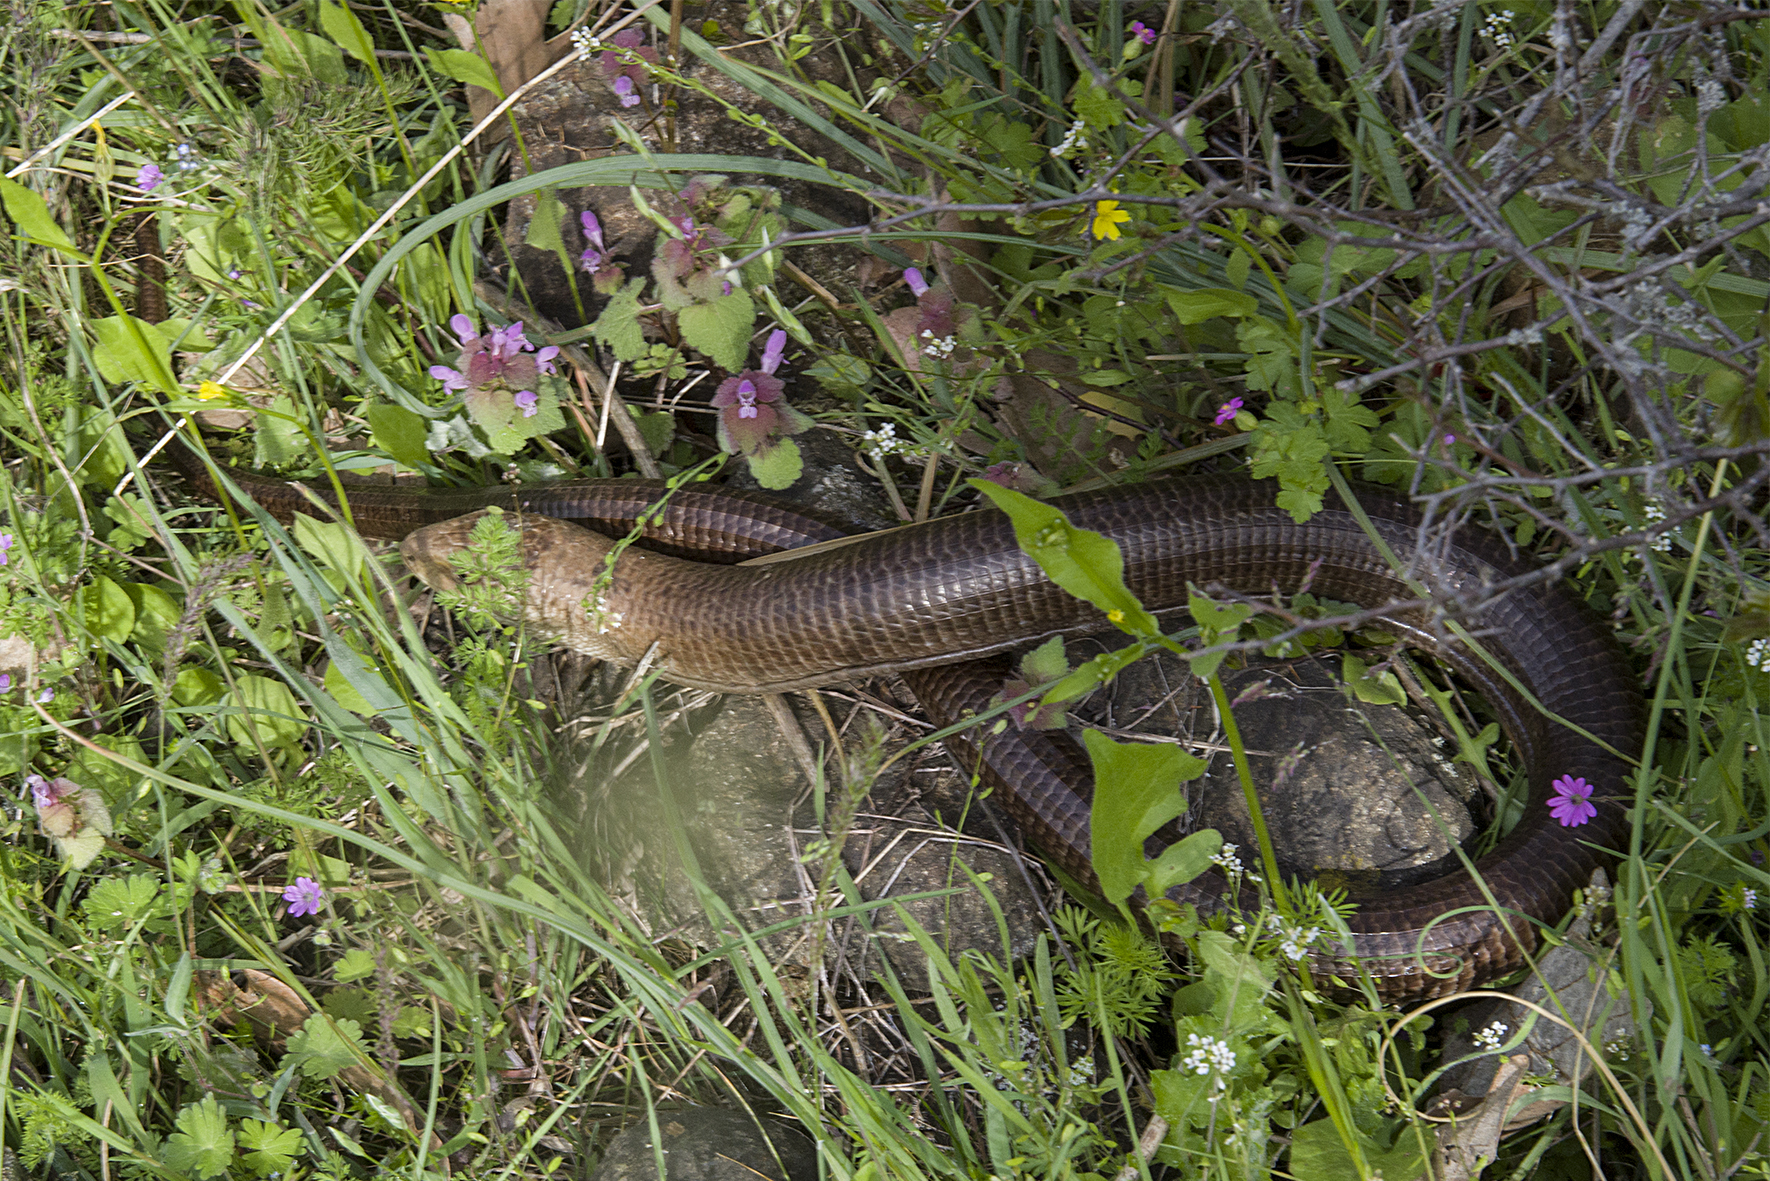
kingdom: Animalia
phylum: Chordata
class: Squamata
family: Anguidae
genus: Pseudopus
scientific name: Pseudopus apodus
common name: European glass lizard
